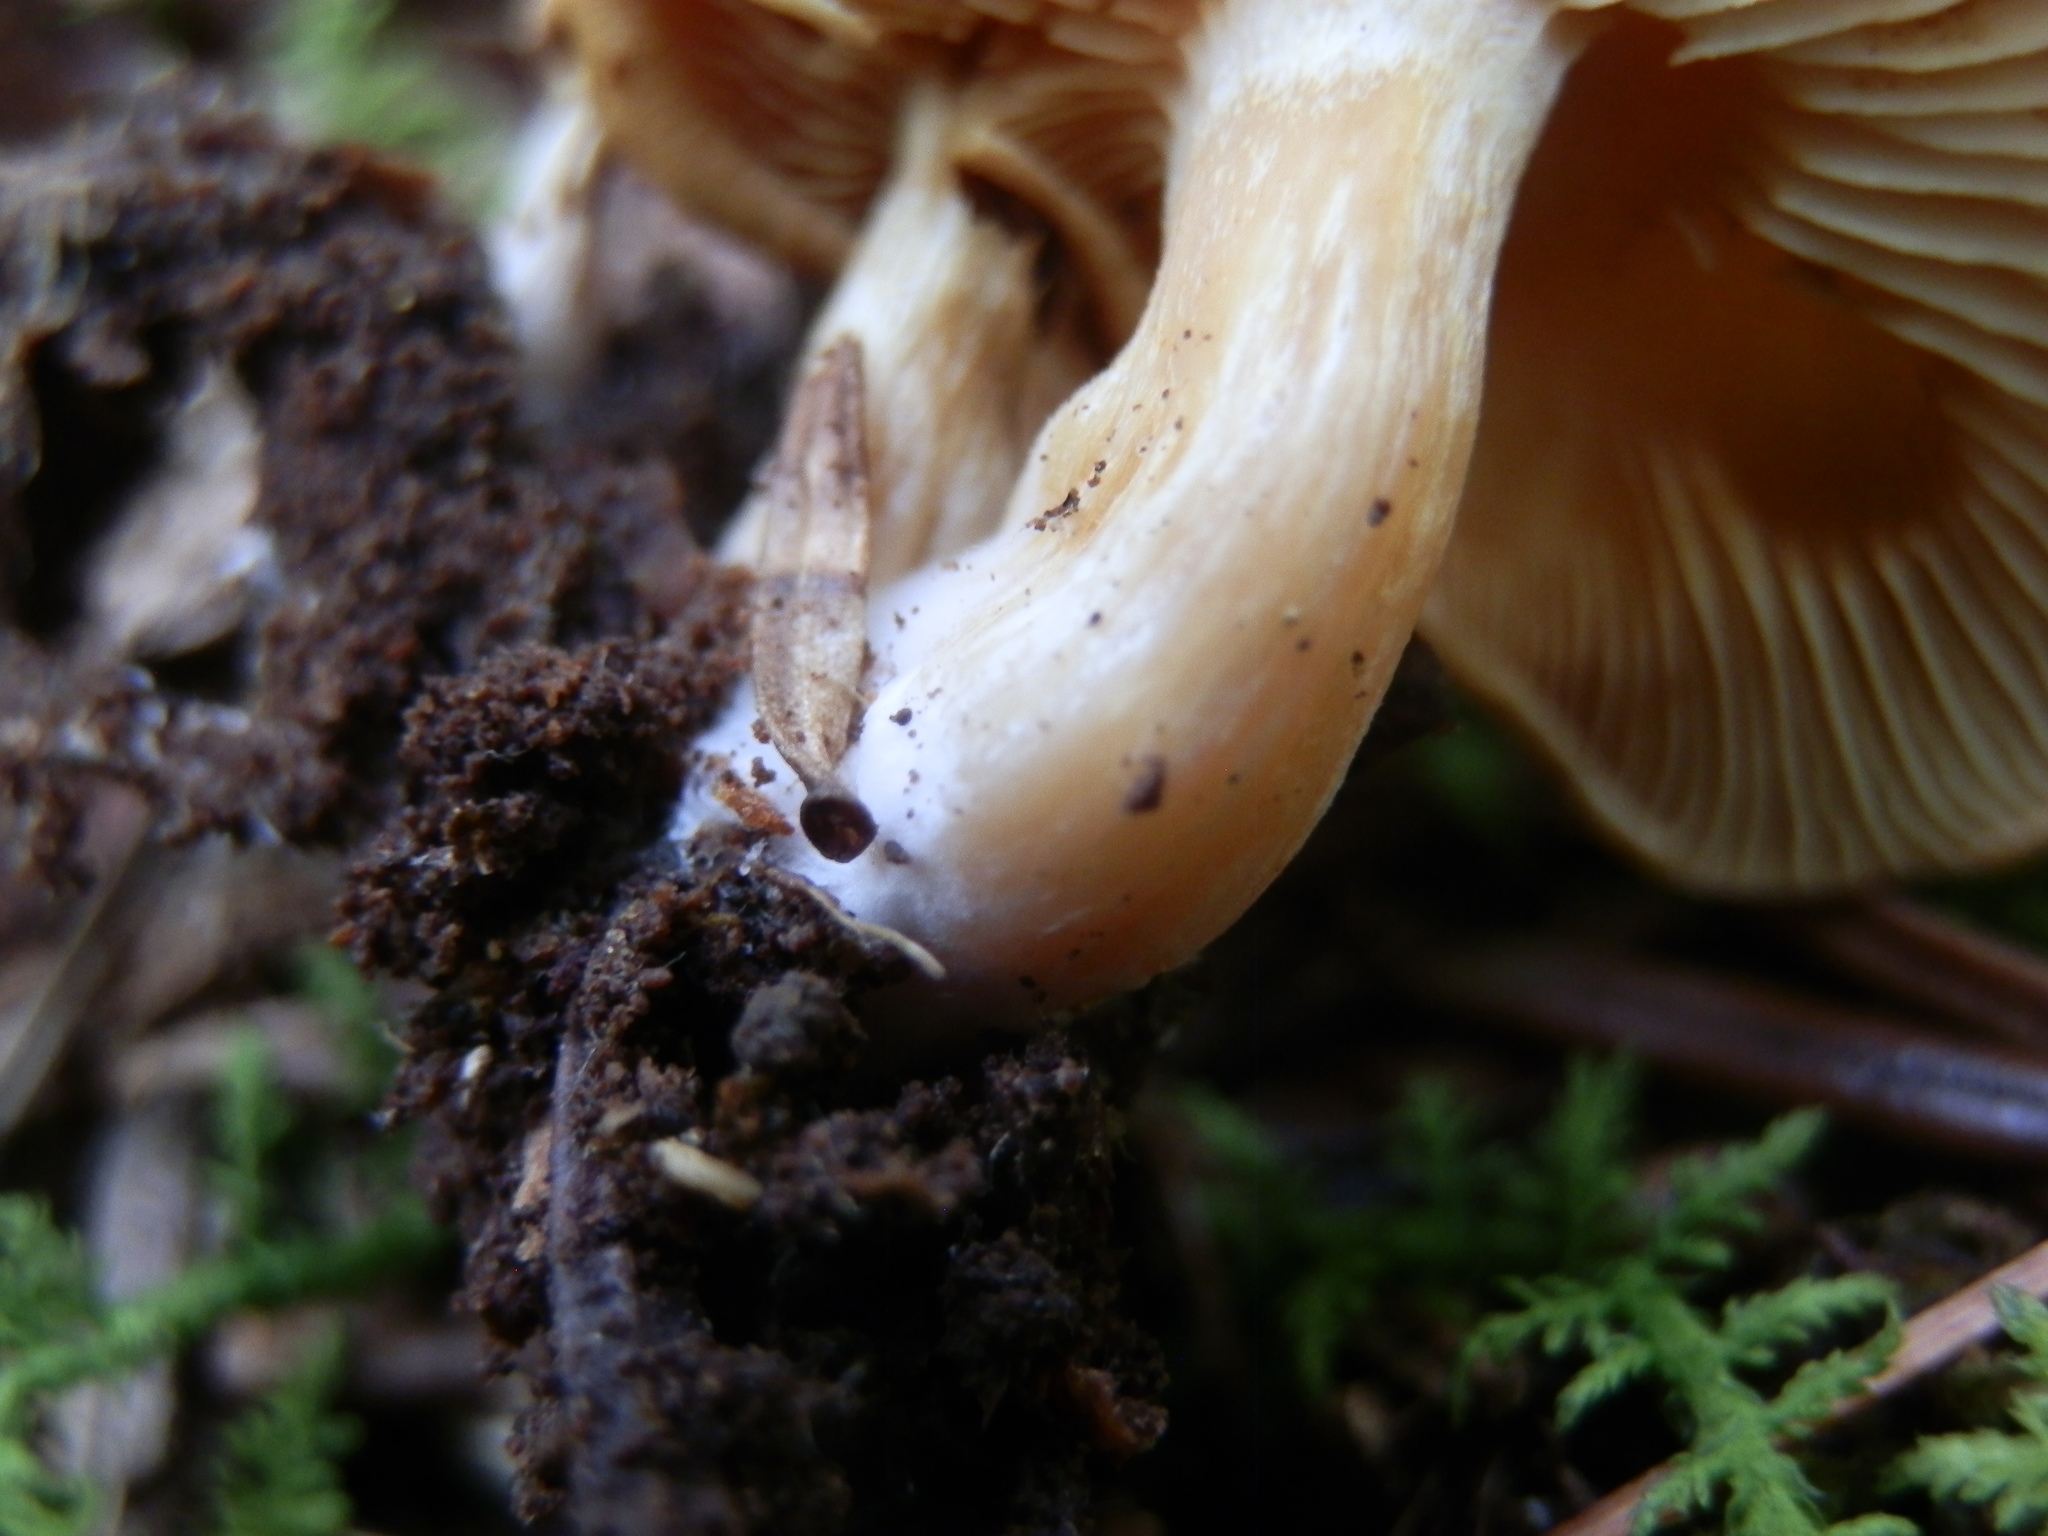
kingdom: Fungi
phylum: Basidiomycota
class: Agaricomycetes
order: Agaricales
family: Hymenogastraceae
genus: Gymnopilus
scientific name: Gymnopilus penetrans
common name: Common rustgill
